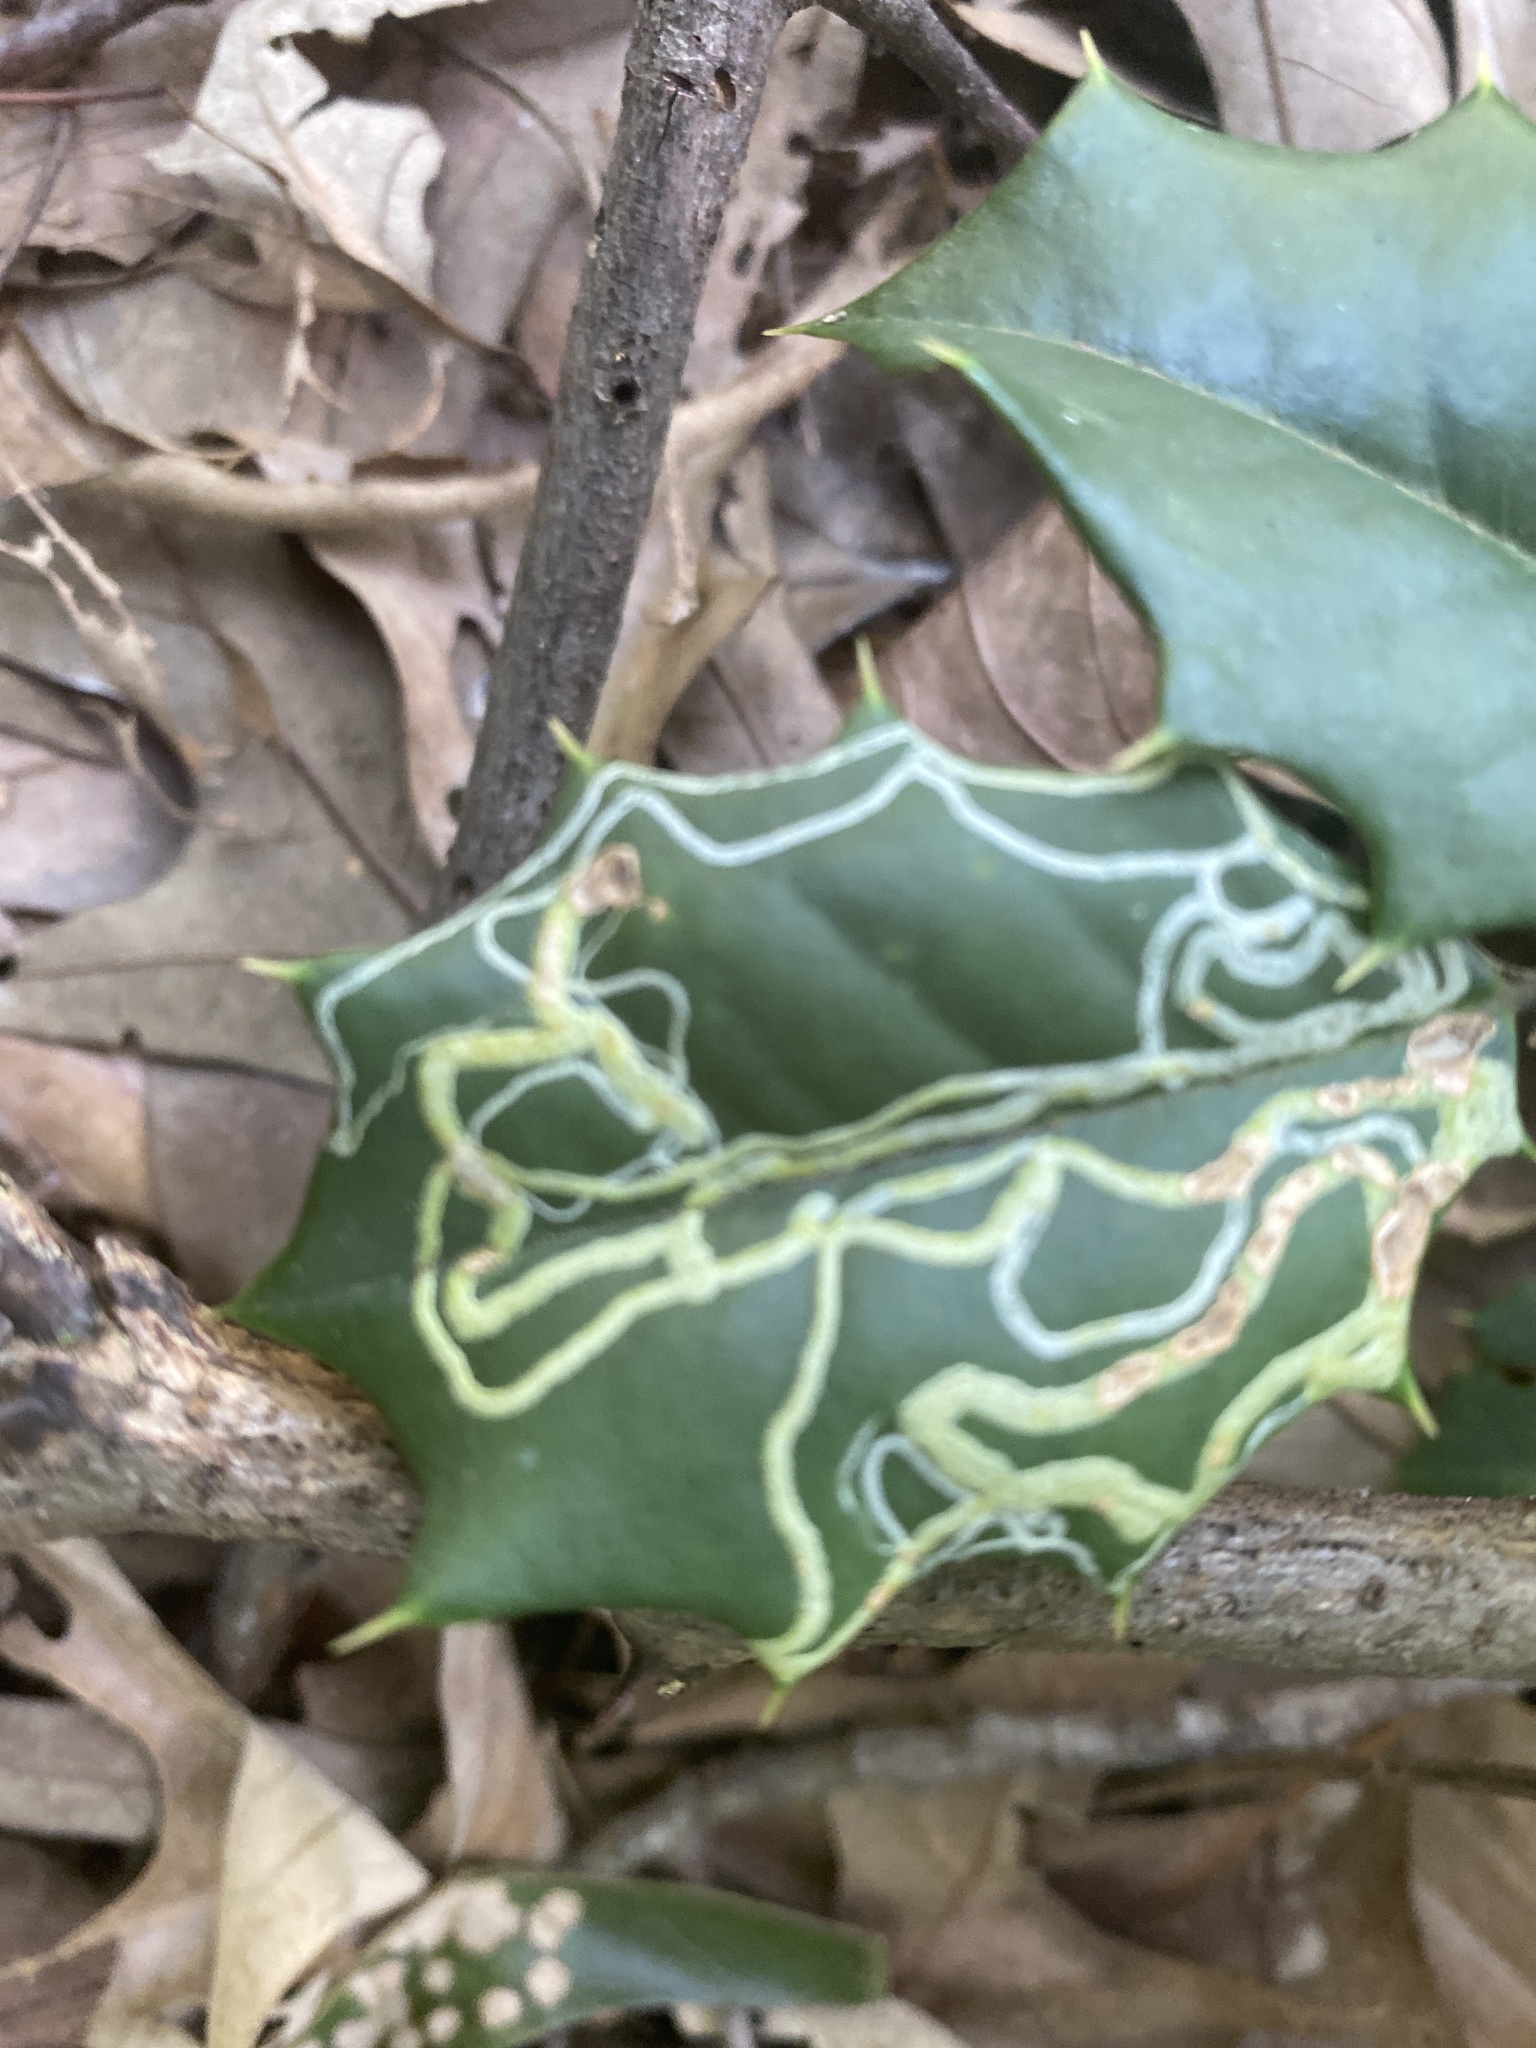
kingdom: Animalia
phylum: Arthropoda
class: Insecta
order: Diptera
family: Agromyzidae
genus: Phytomyza
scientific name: Phytomyza opacae
